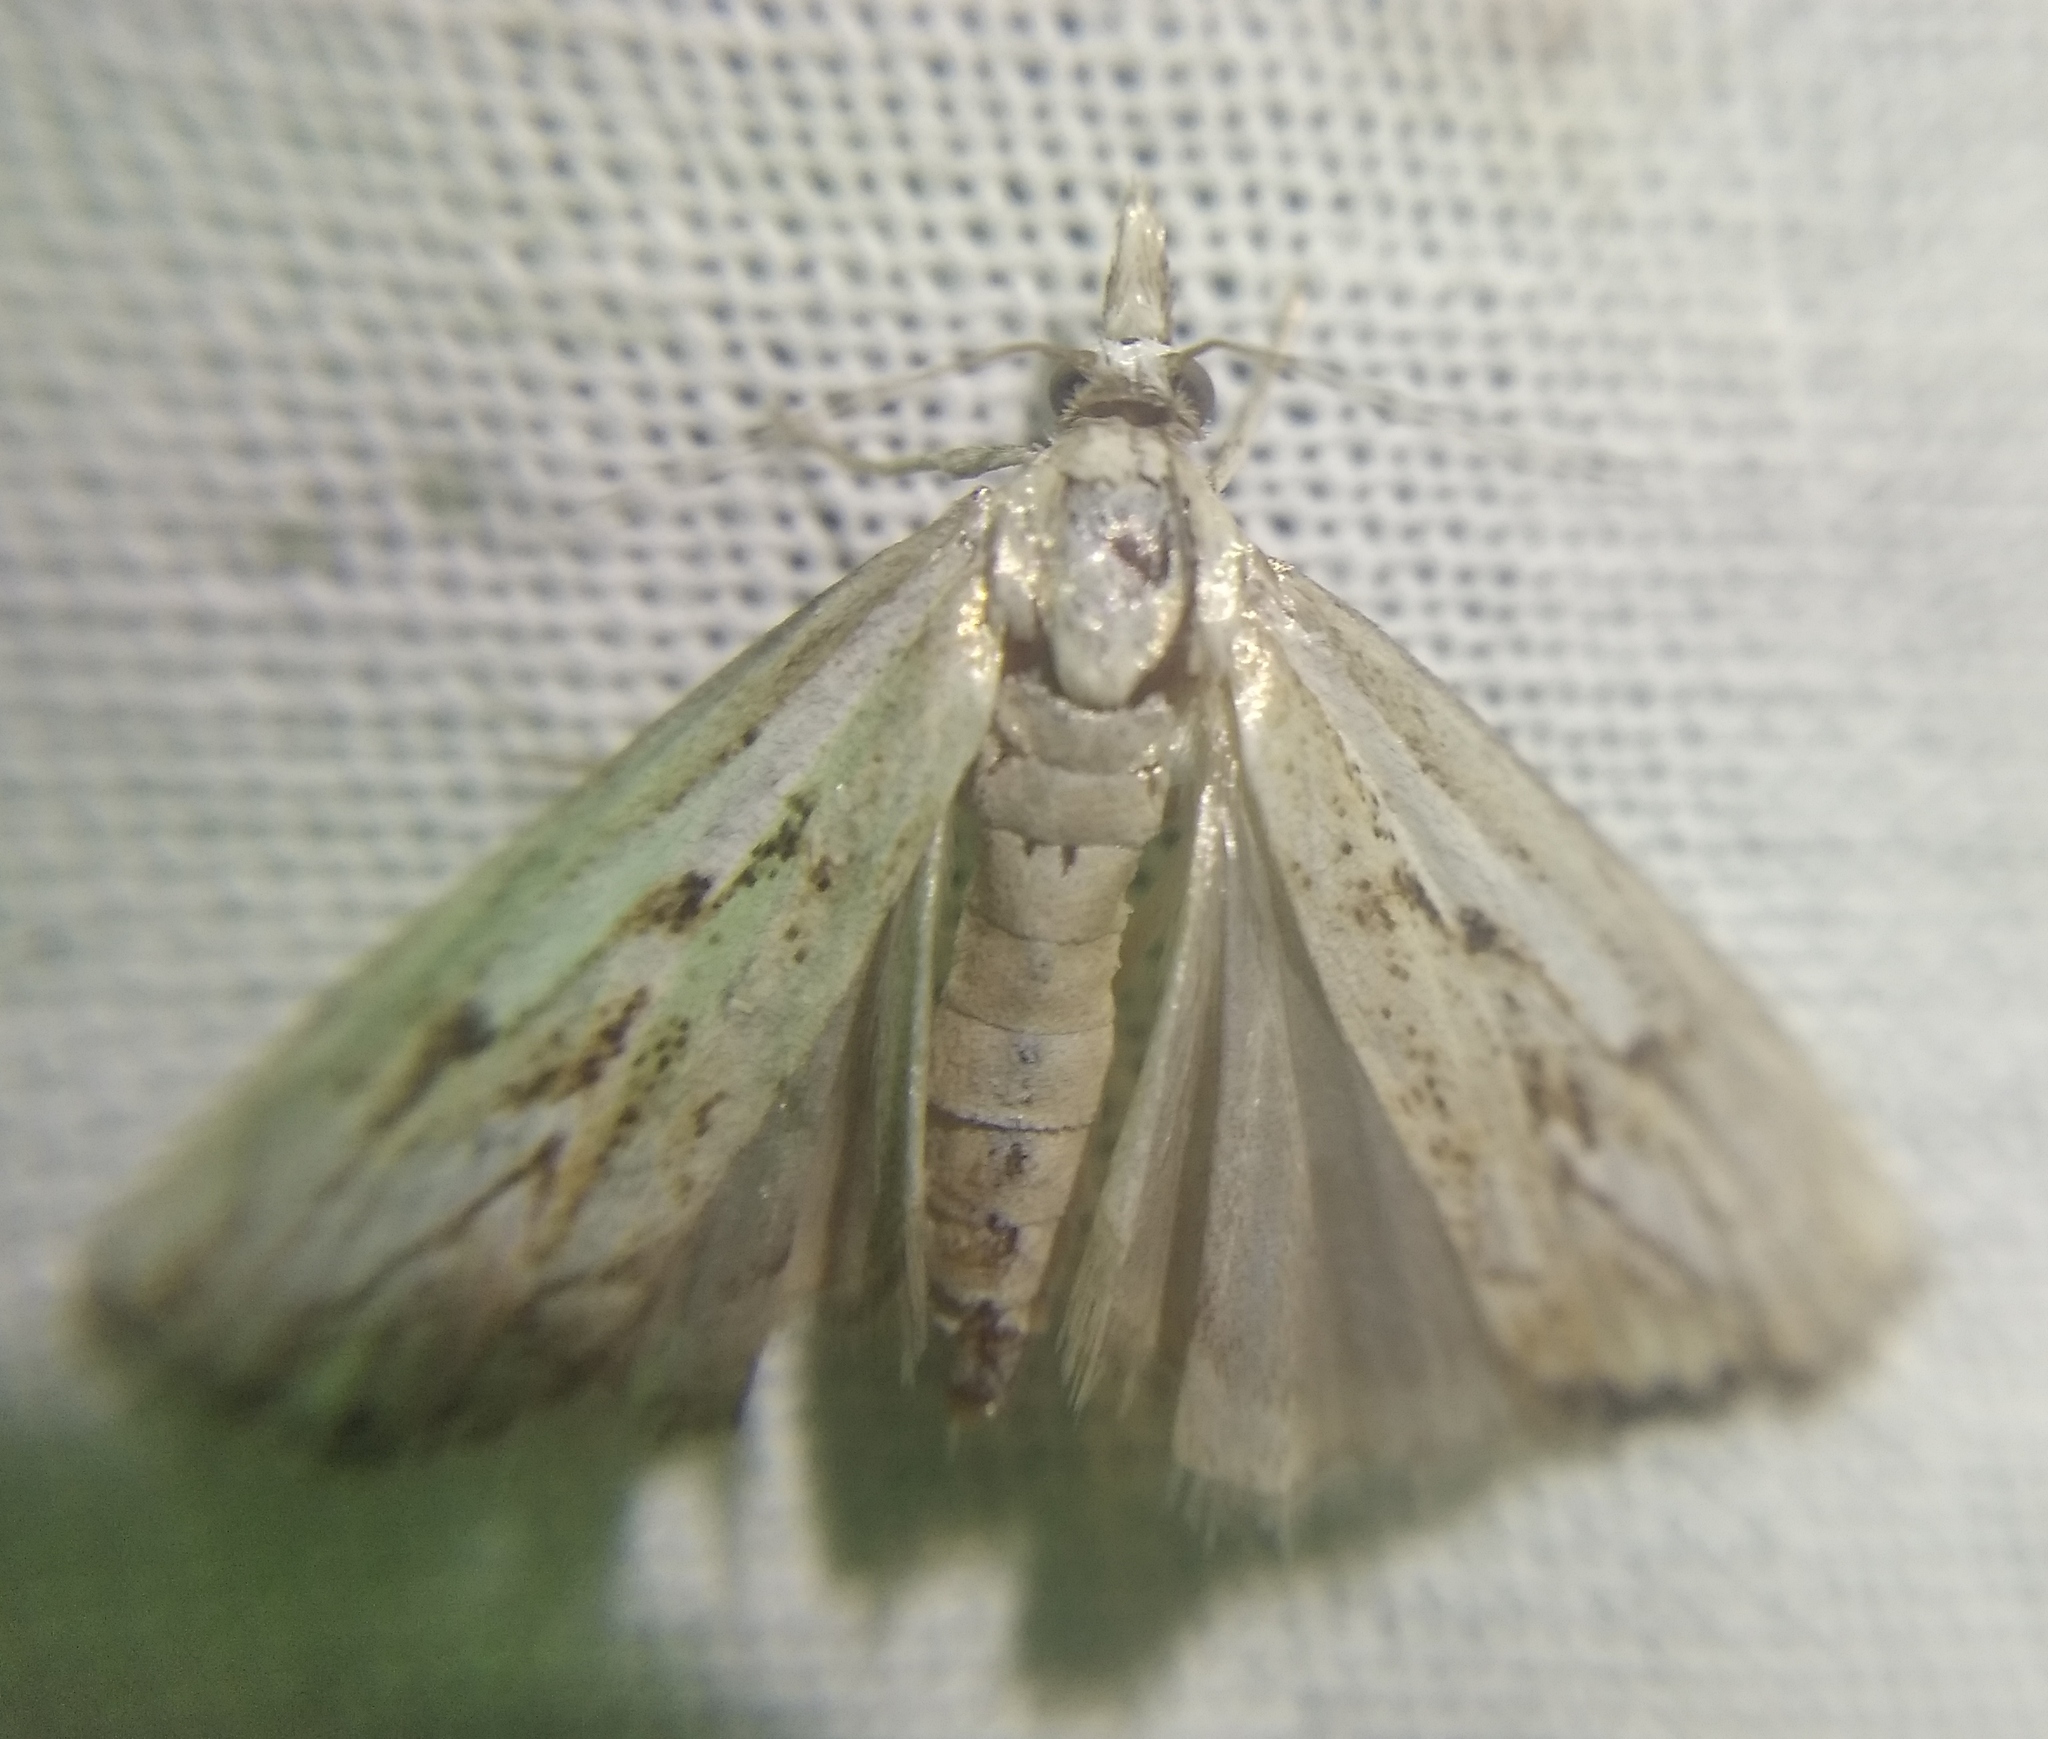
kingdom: Animalia
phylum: Arthropoda
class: Insecta
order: Lepidoptera
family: Crambidae
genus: Catoptria
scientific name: Catoptria falsella
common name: Chequered grass-veneer
